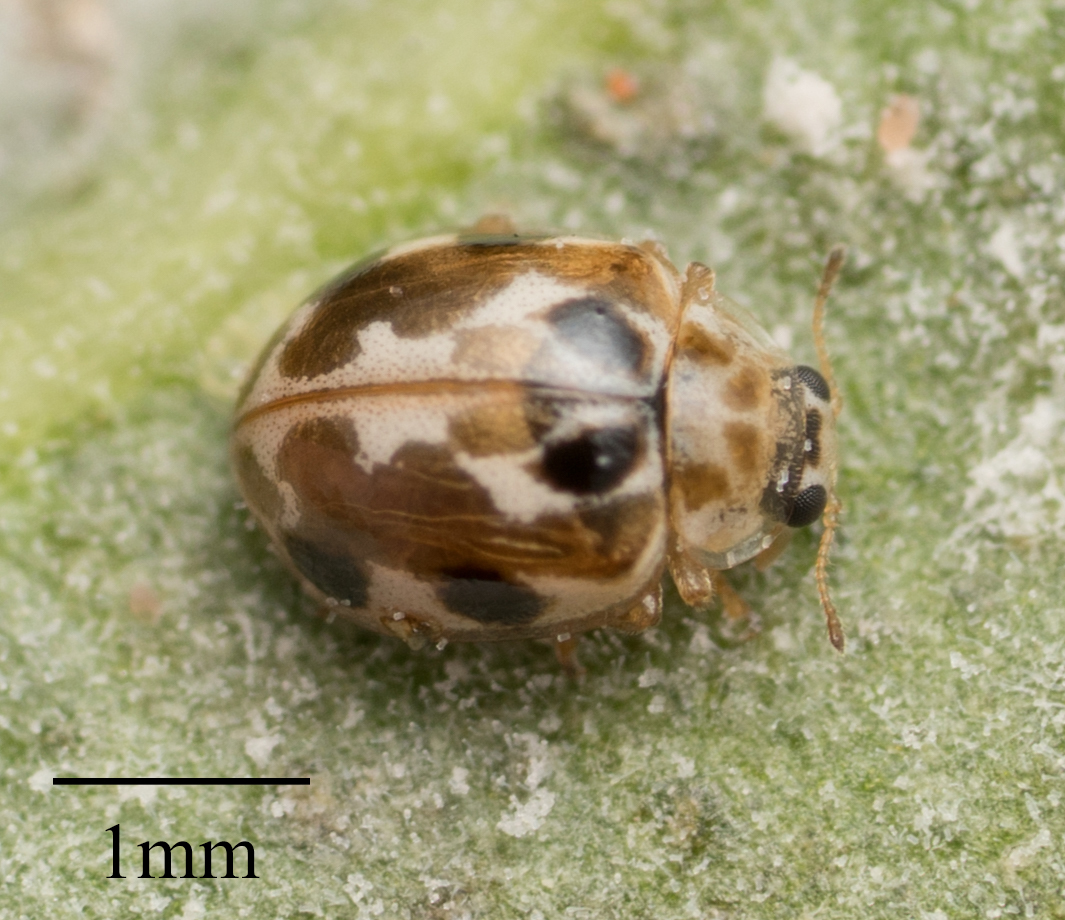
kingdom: Animalia
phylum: Arthropoda
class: Insecta
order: Coleoptera
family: Coccinellidae
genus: Psyllobora
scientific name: Psyllobora vigintimaculata
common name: Ladybird beetle
